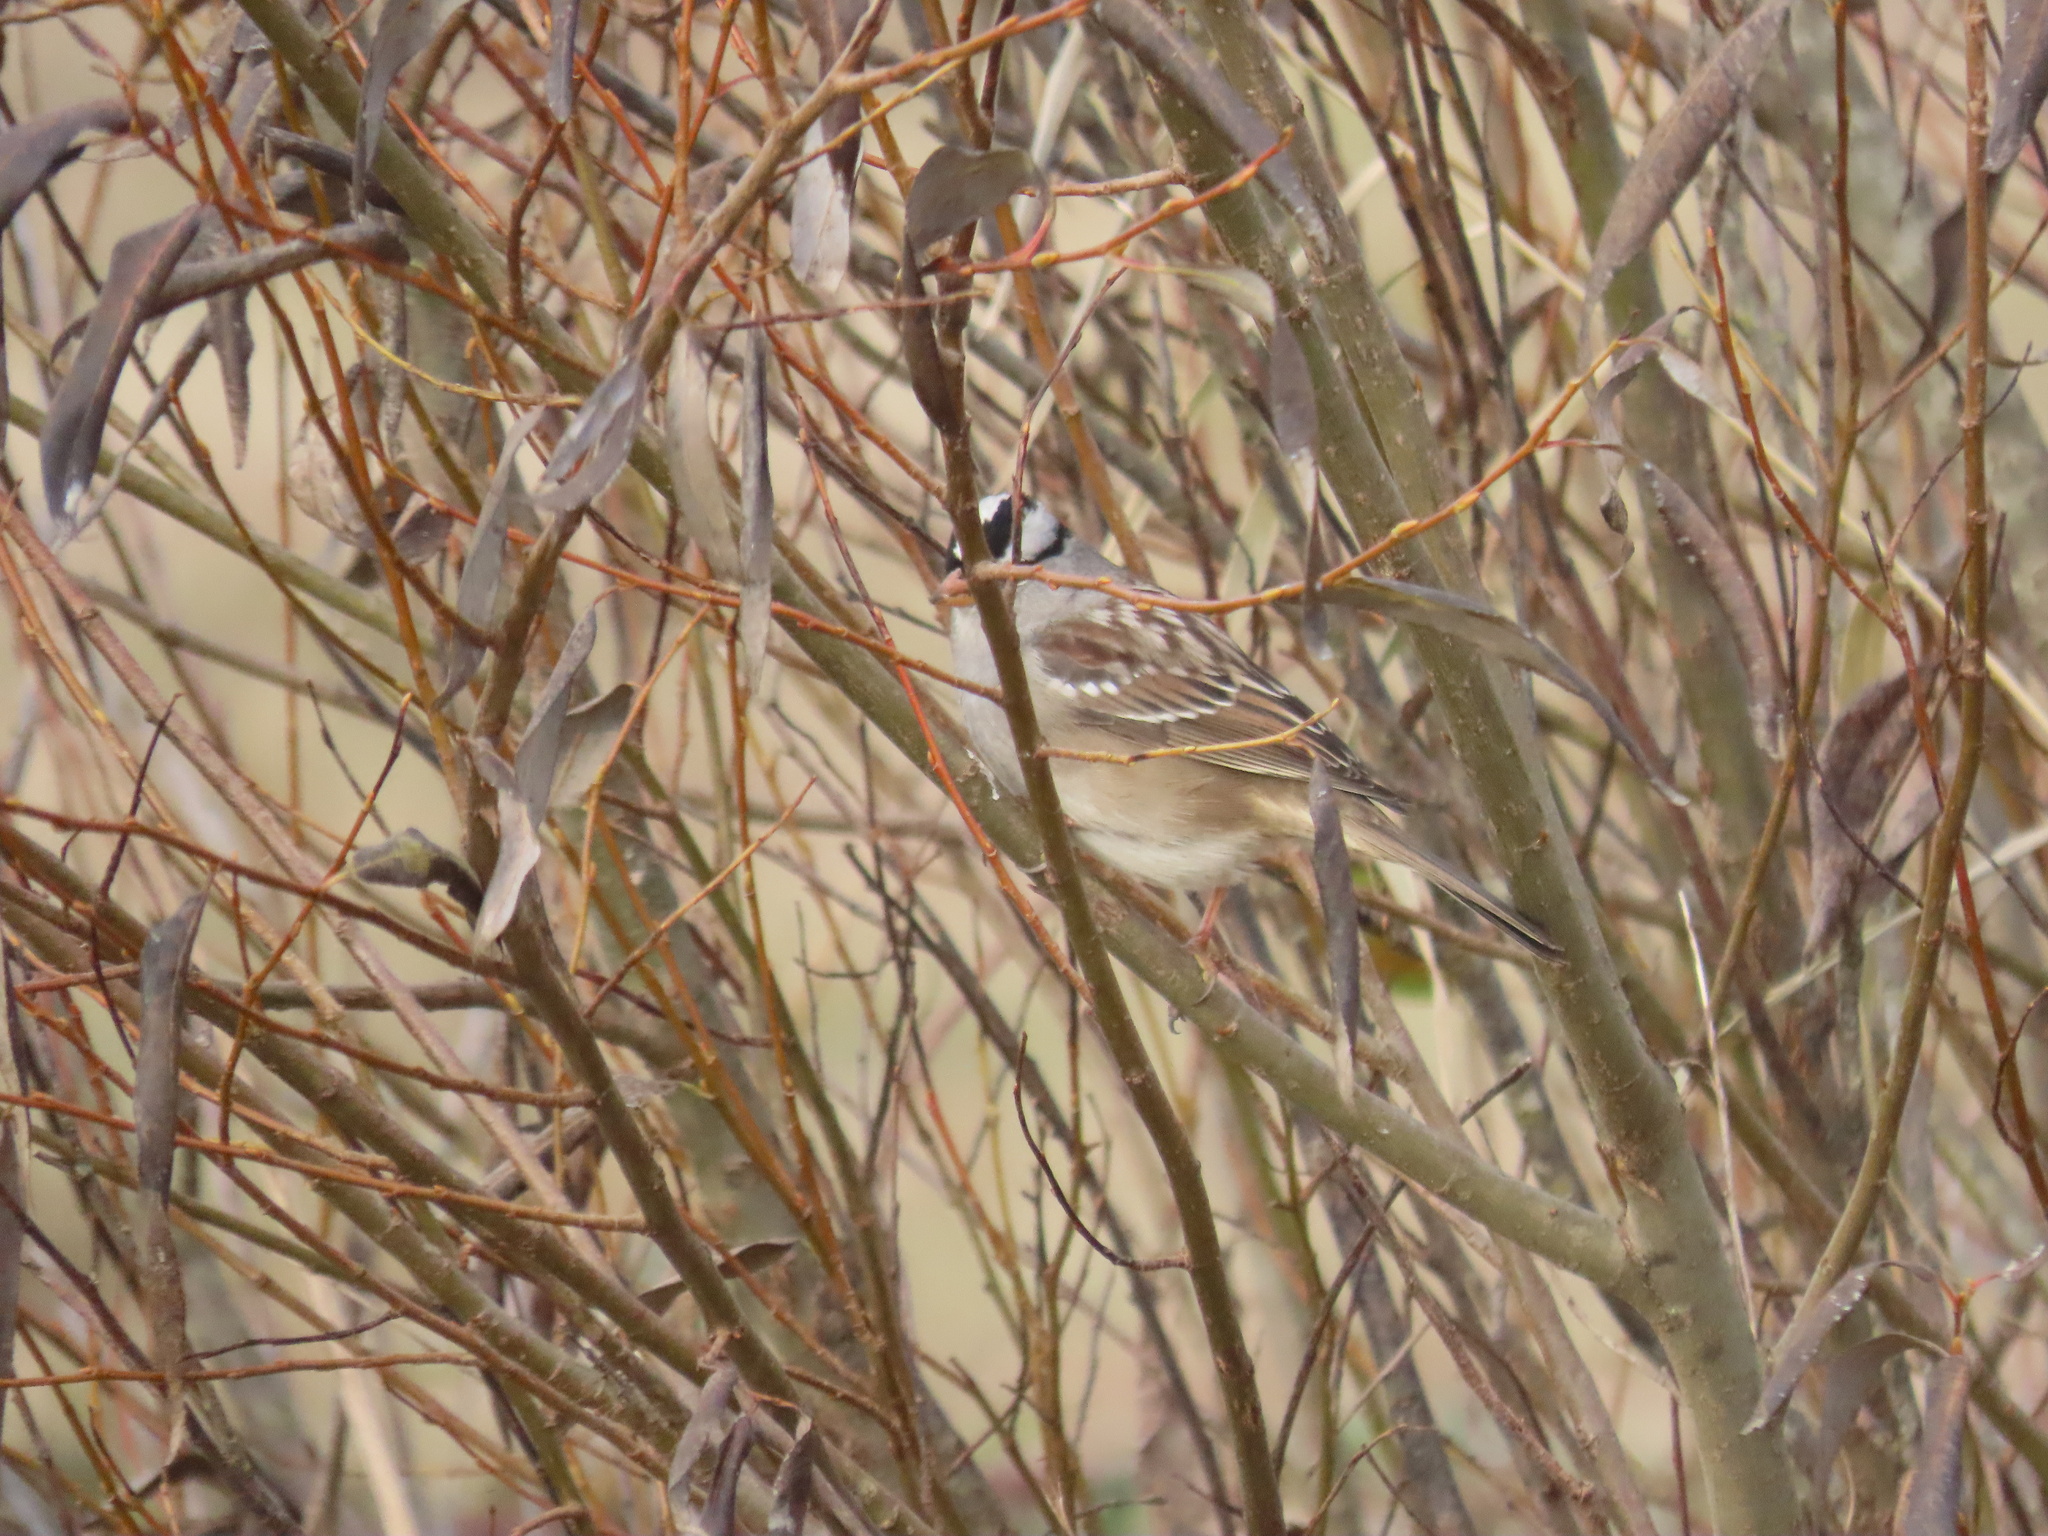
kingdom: Animalia
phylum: Chordata
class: Aves
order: Passeriformes
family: Passerellidae
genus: Zonotrichia
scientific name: Zonotrichia leucophrys
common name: White-crowned sparrow
